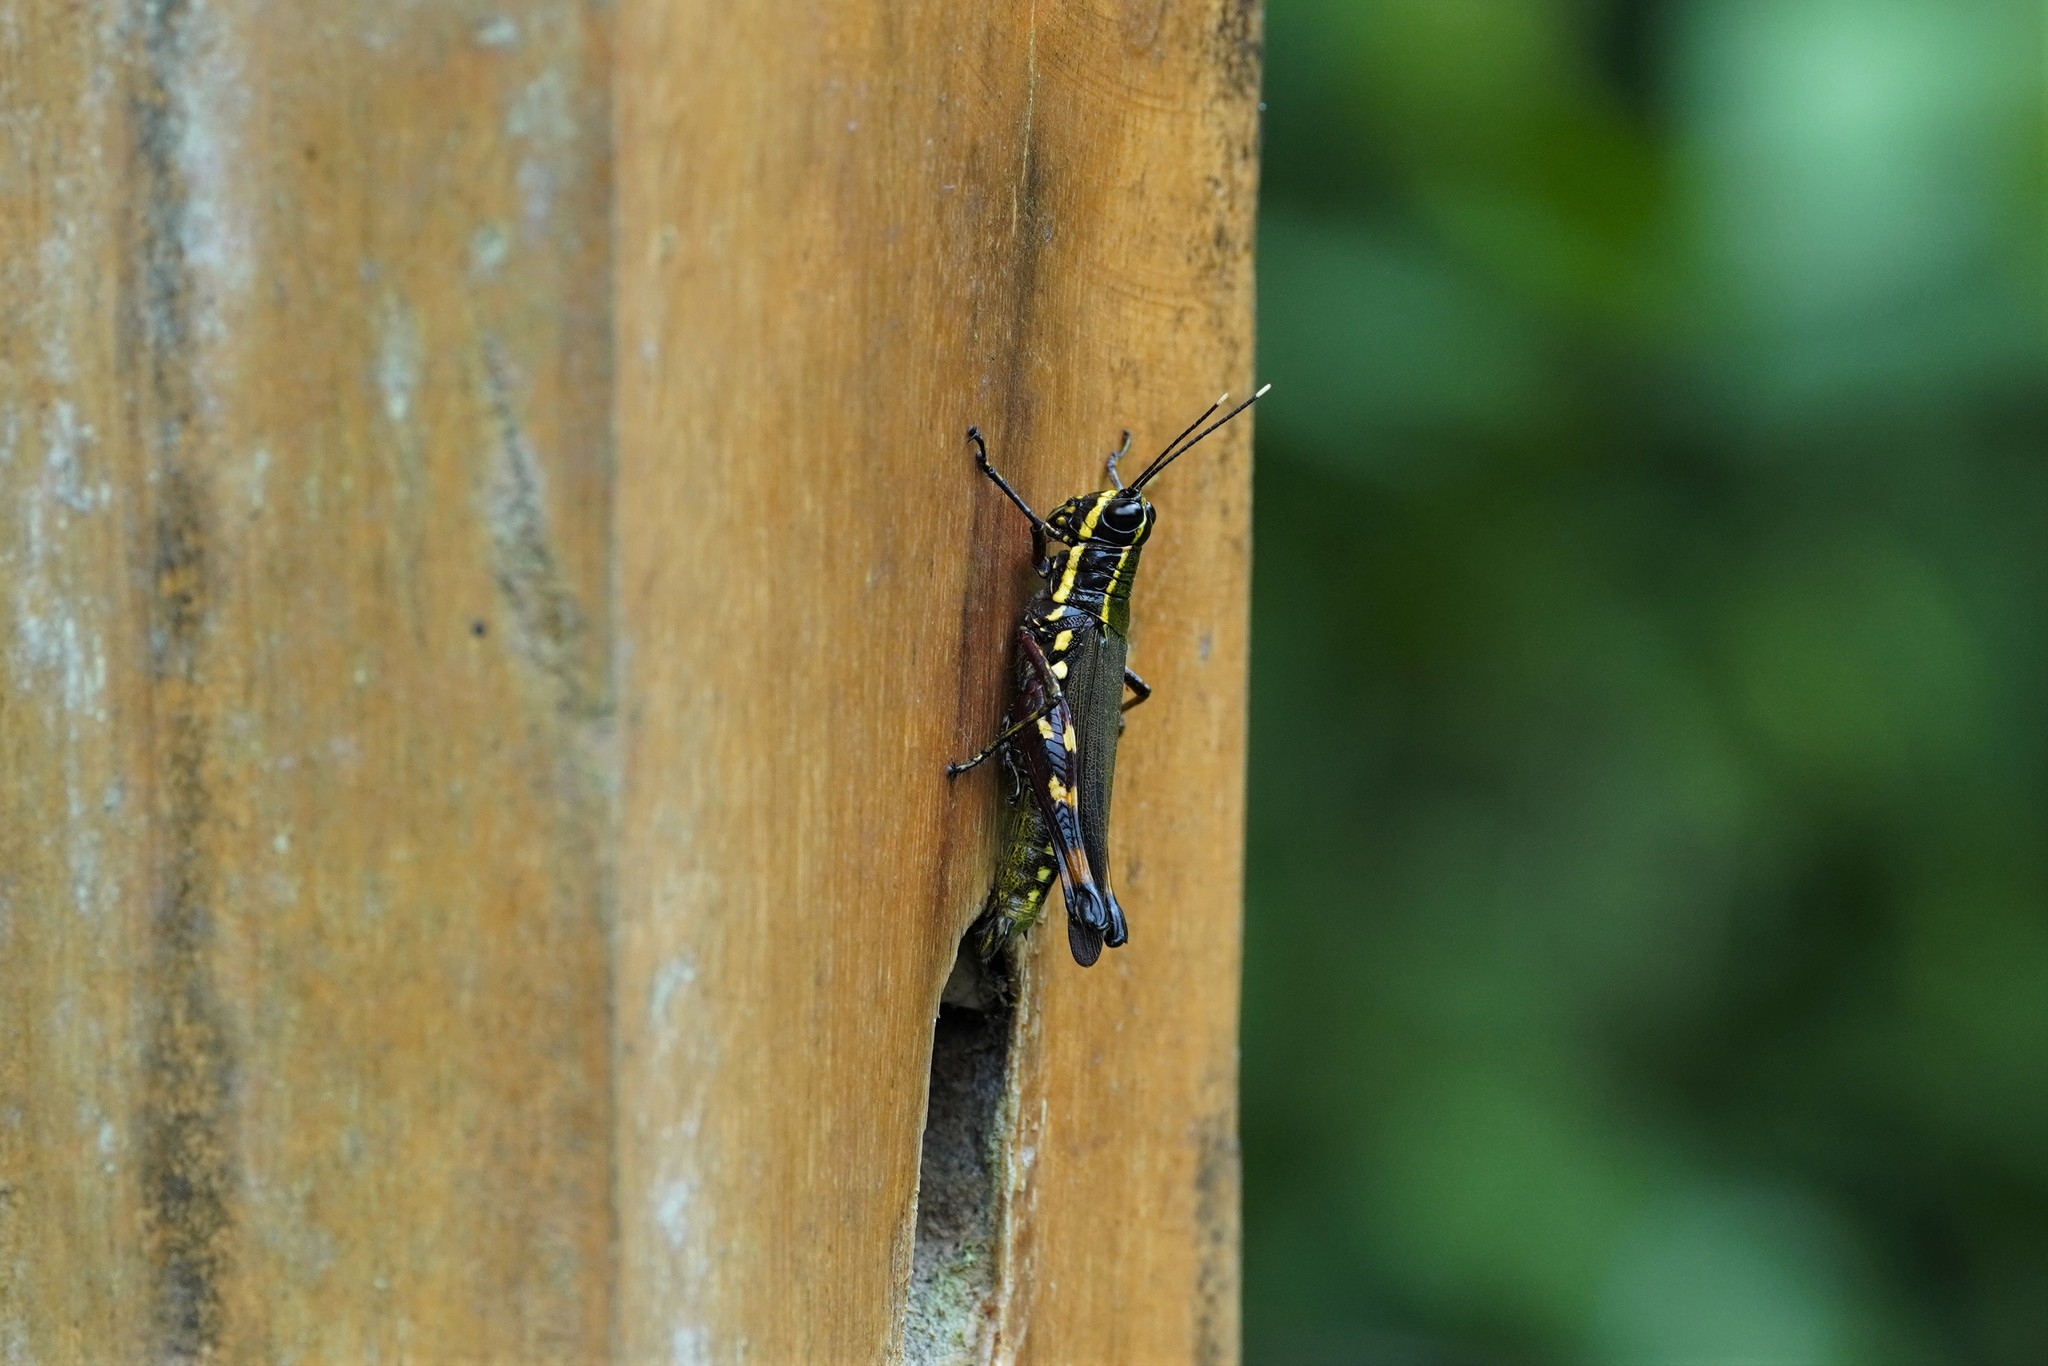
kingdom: Animalia
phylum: Arthropoda
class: Insecta
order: Orthoptera
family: Acrididae
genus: Tetrataenia
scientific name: Tetrataenia surinama
